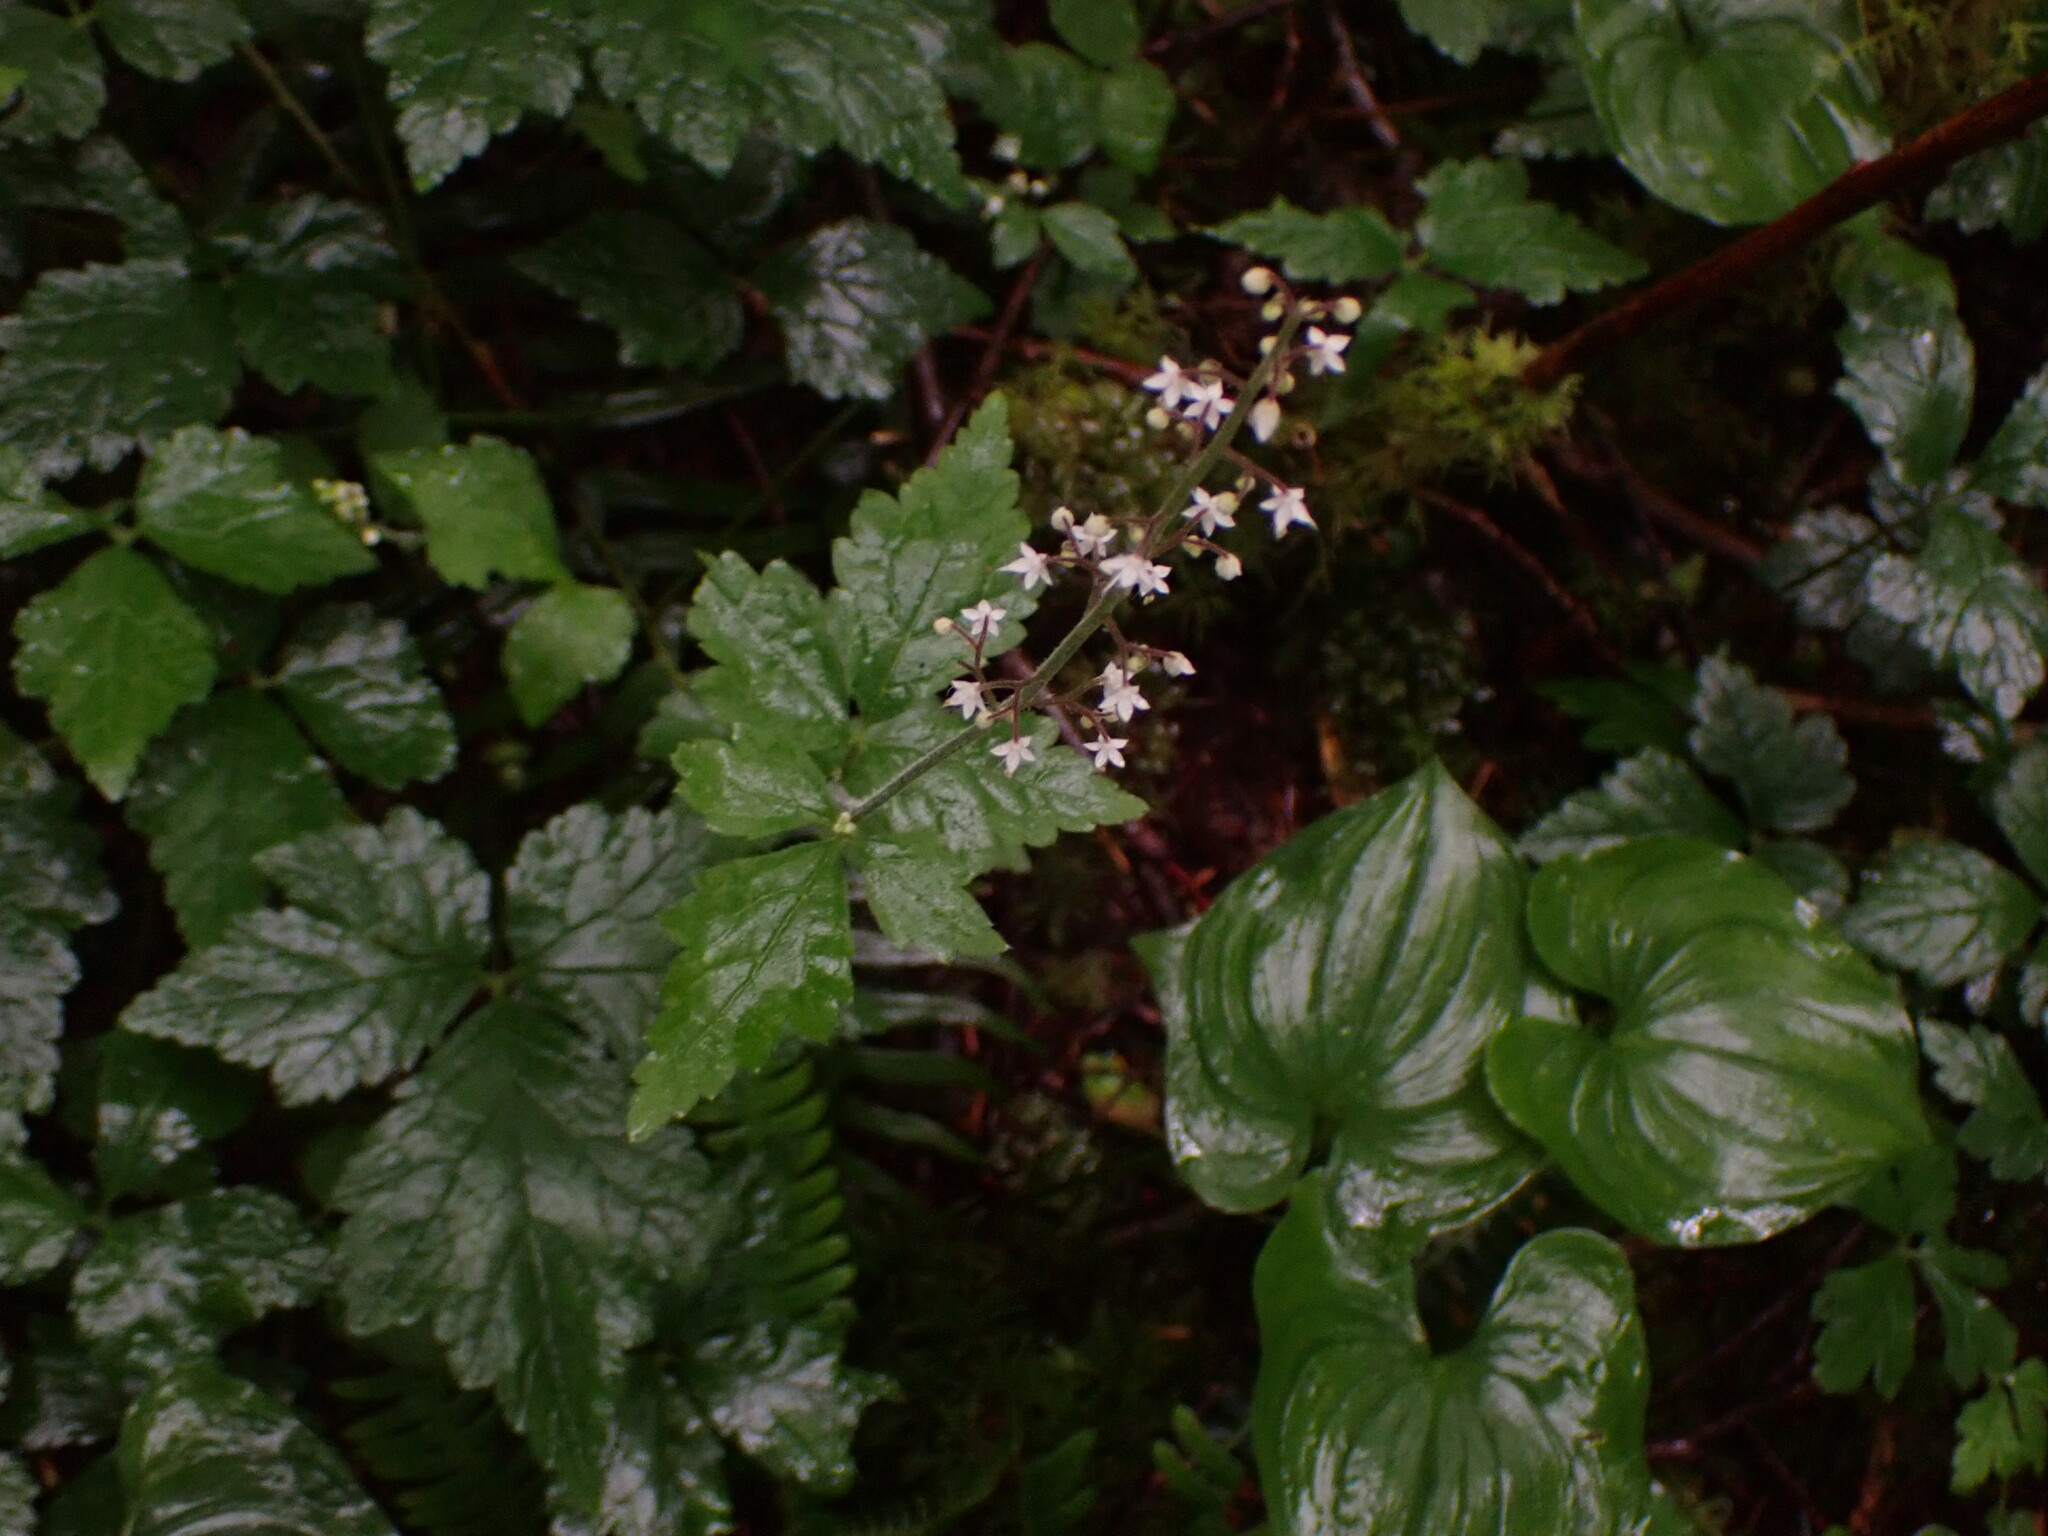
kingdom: Plantae
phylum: Tracheophyta
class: Magnoliopsida
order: Saxifragales
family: Saxifragaceae
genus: Tiarella
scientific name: Tiarella trifoliata
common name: Sugar-scoop
